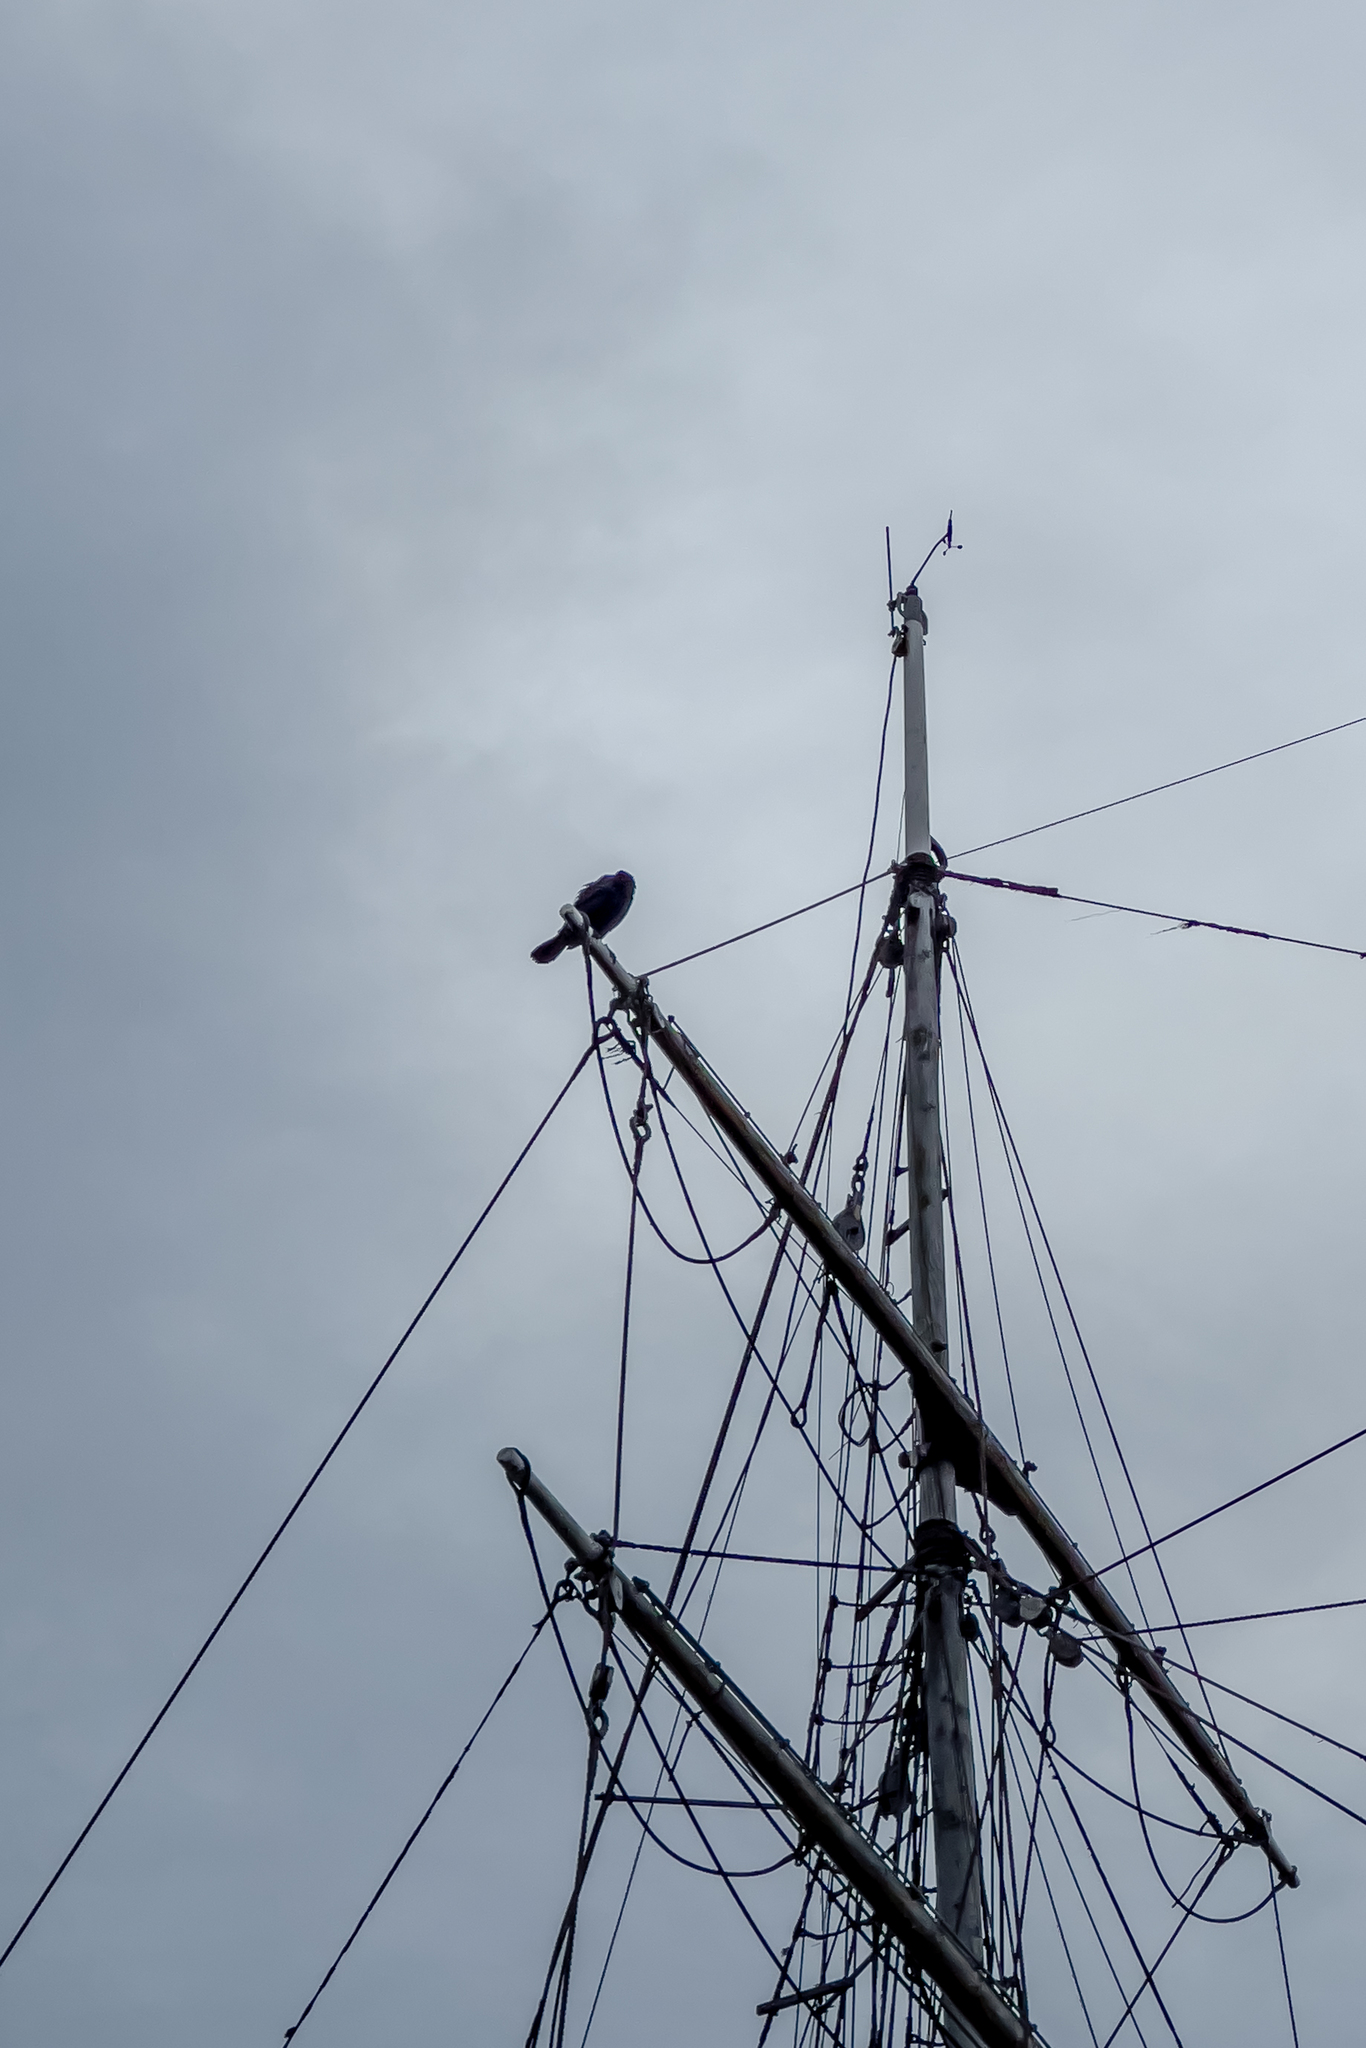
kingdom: Animalia
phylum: Chordata
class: Aves
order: Suliformes
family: Phalacrocoracidae
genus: Phalacrocorax
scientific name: Phalacrocorax carbo
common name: Great cormorant
